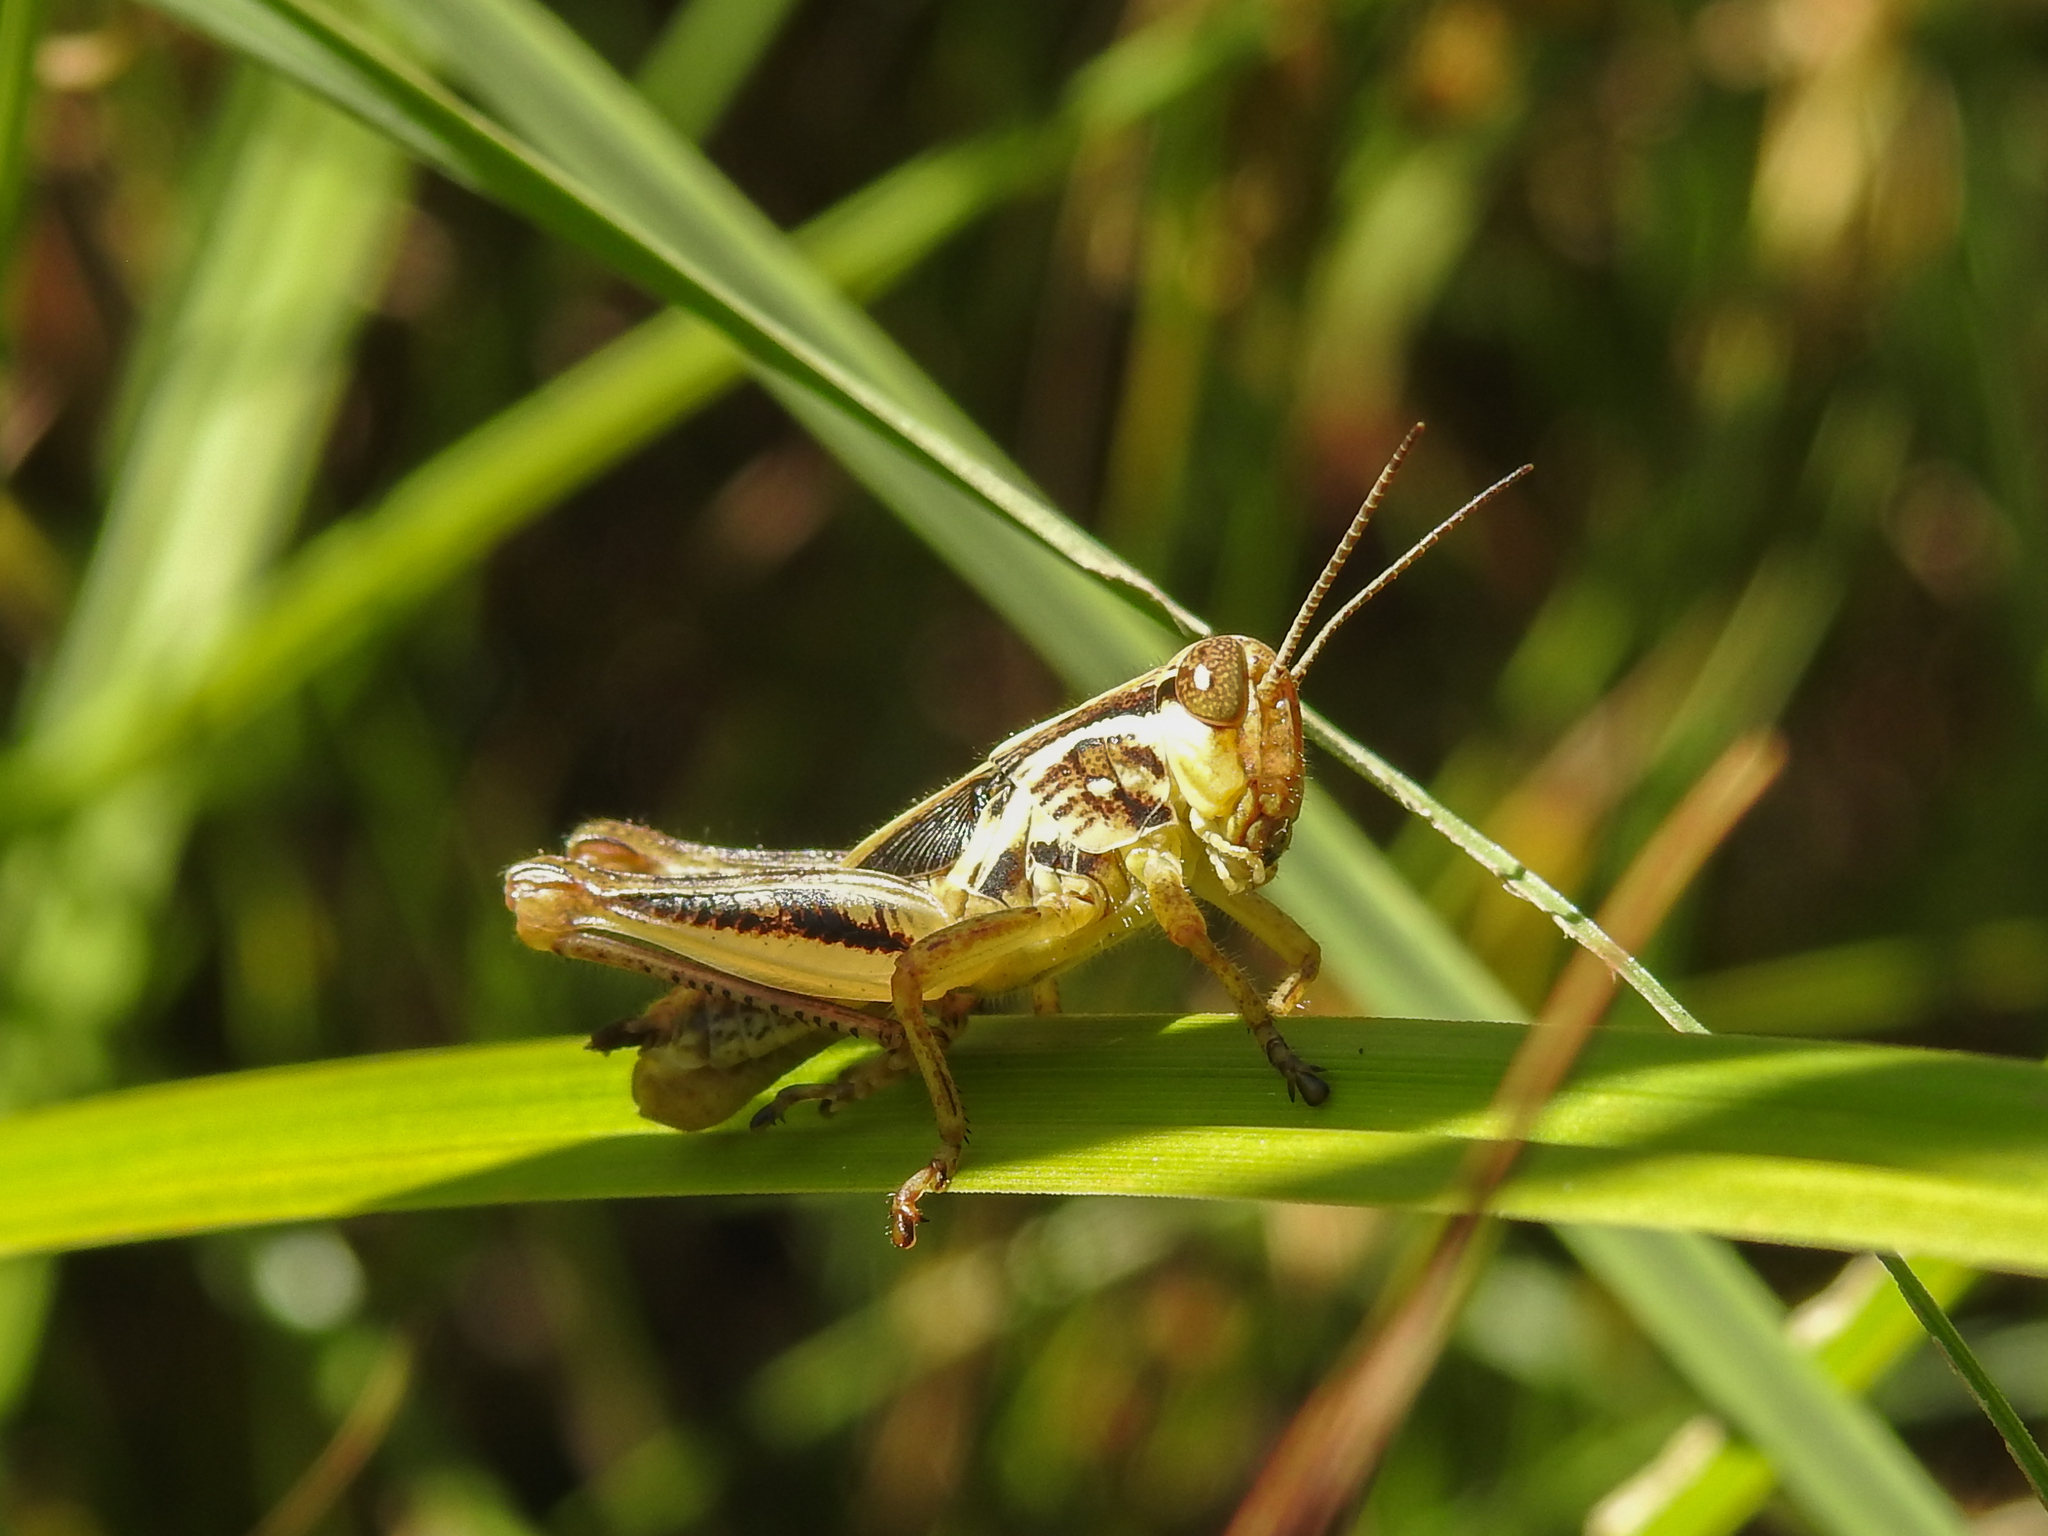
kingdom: Animalia
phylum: Arthropoda
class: Insecta
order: Orthoptera
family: Acrididae
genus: Melanoplus
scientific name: Melanoplus femurrubrum
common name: Red-legged grasshopper
